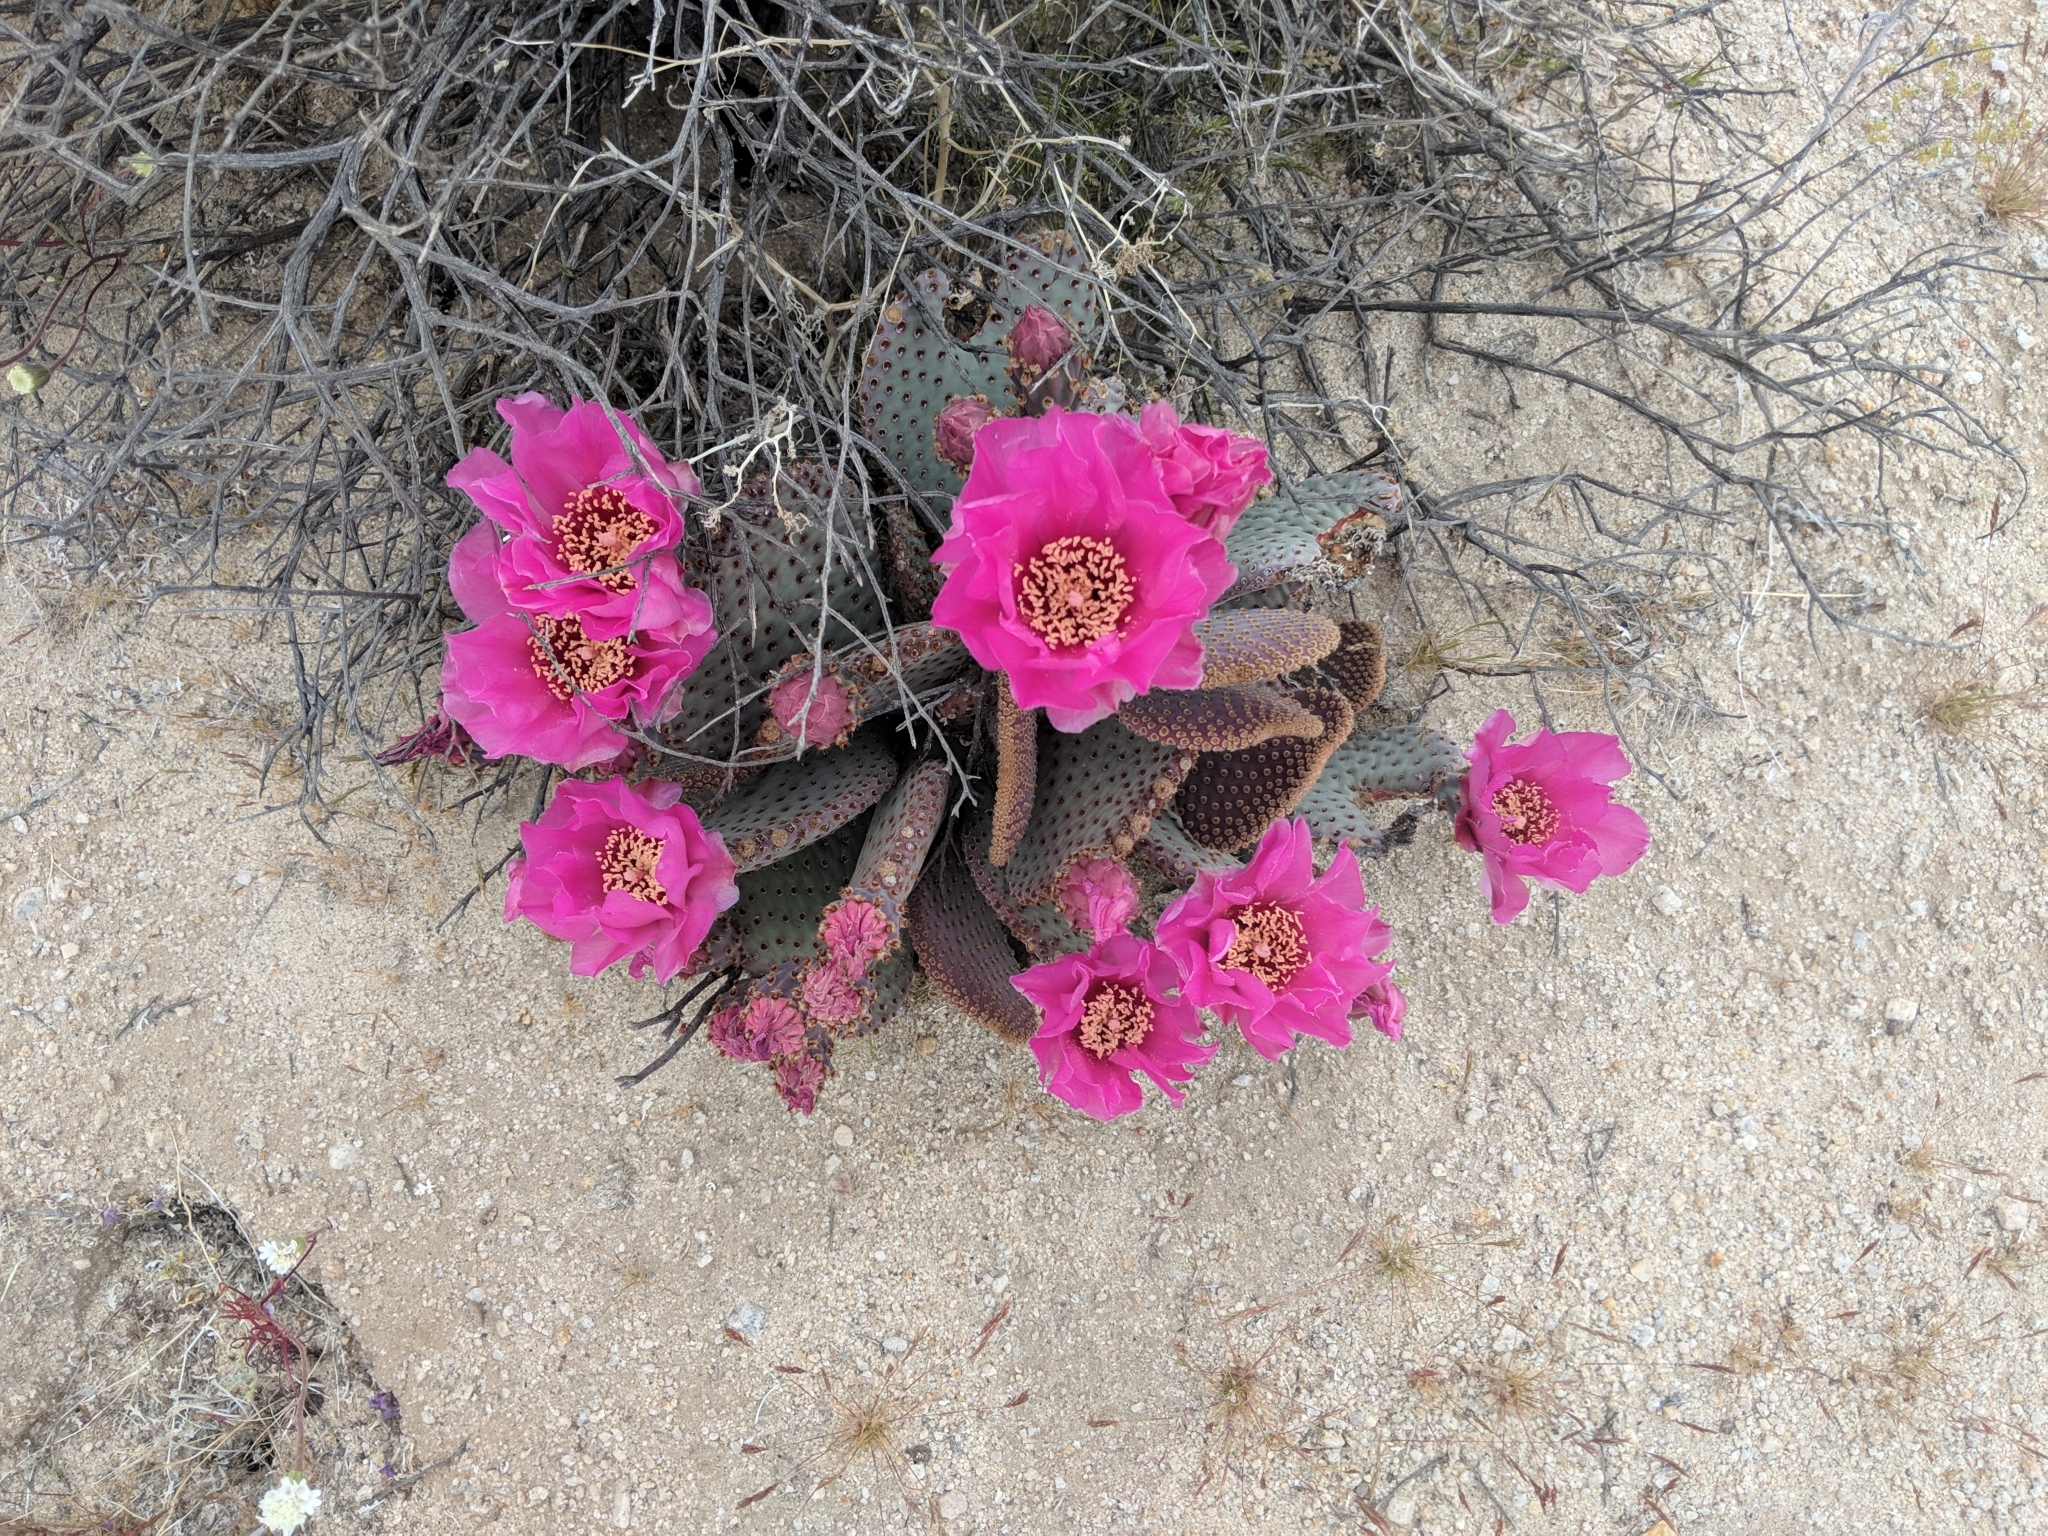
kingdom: Plantae
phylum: Tracheophyta
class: Magnoliopsida
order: Caryophyllales
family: Cactaceae
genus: Opuntia
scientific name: Opuntia basilaris
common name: Beavertail prickly-pear
